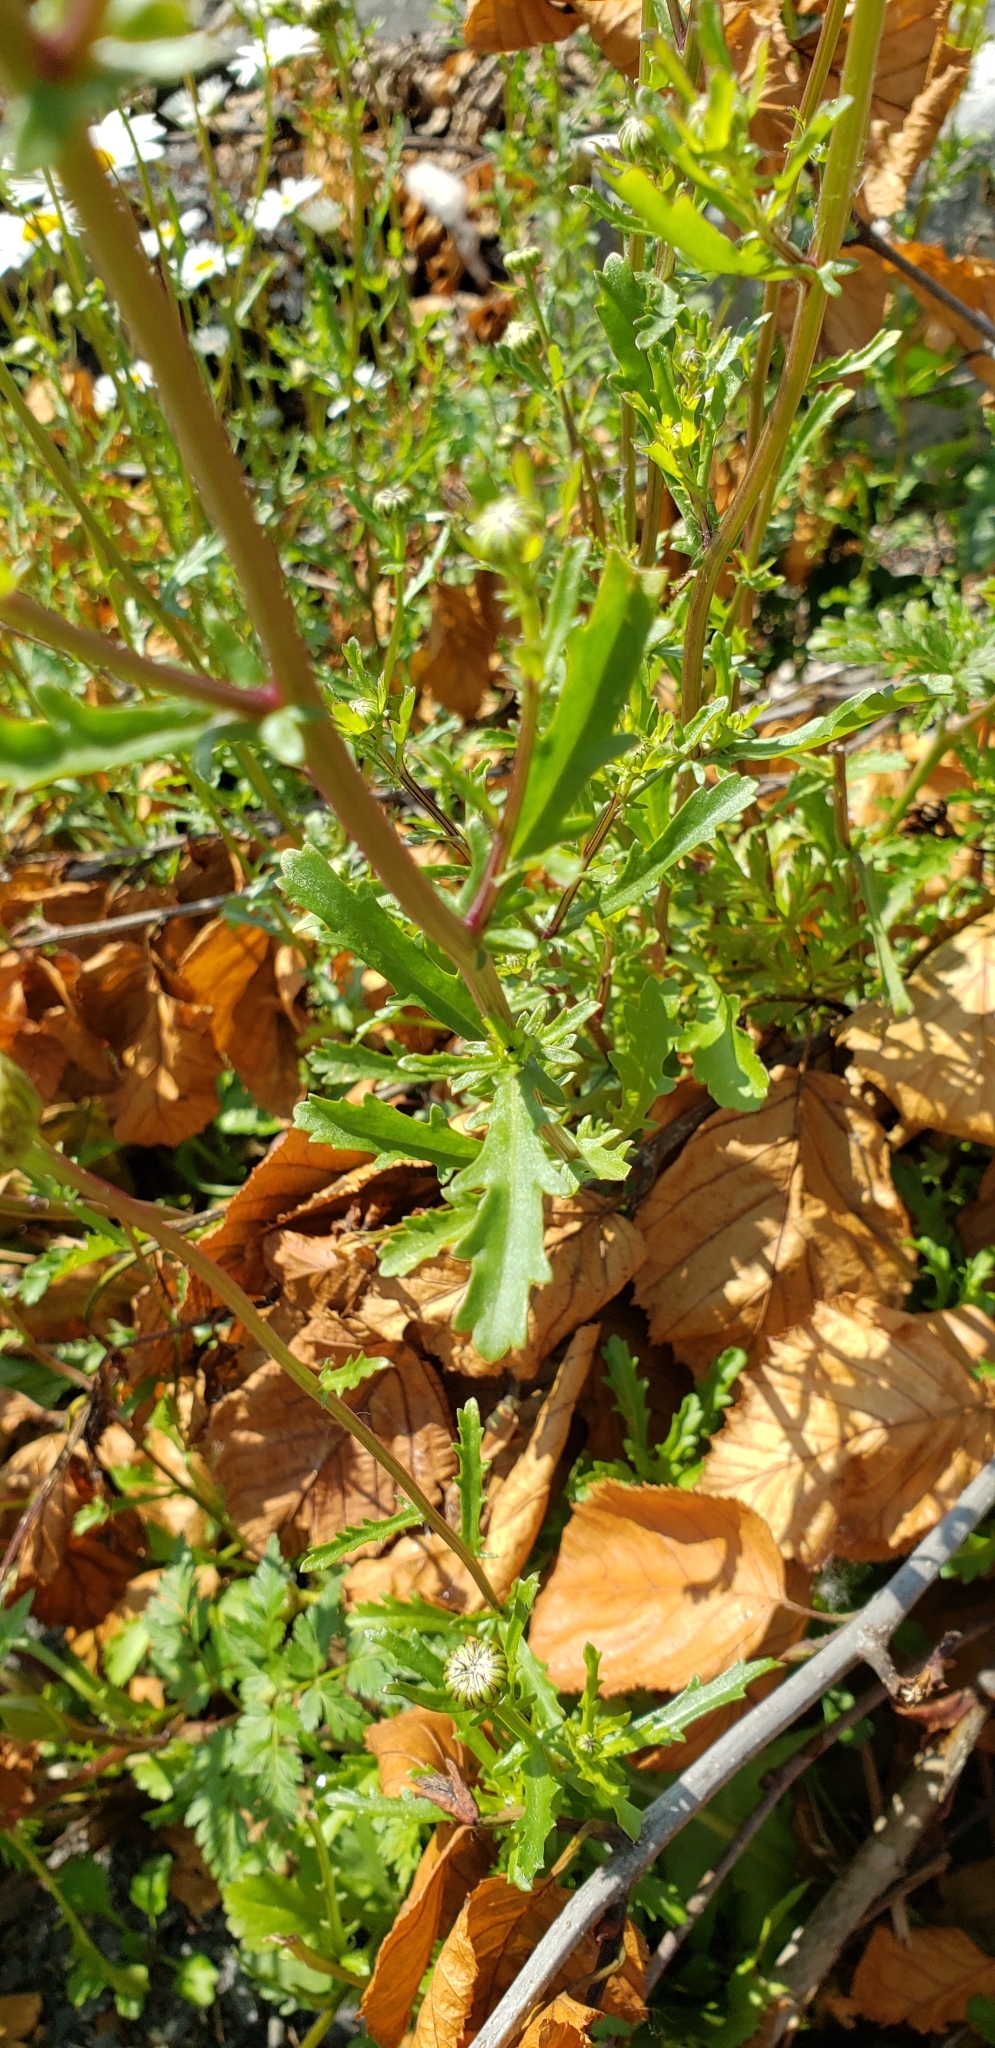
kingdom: Plantae
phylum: Tracheophyta
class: Magnoliopsida
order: Asterales
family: Asteraceae
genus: Leucanthemum
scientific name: Leucanthemum vulgare
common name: Oxeye daisy
